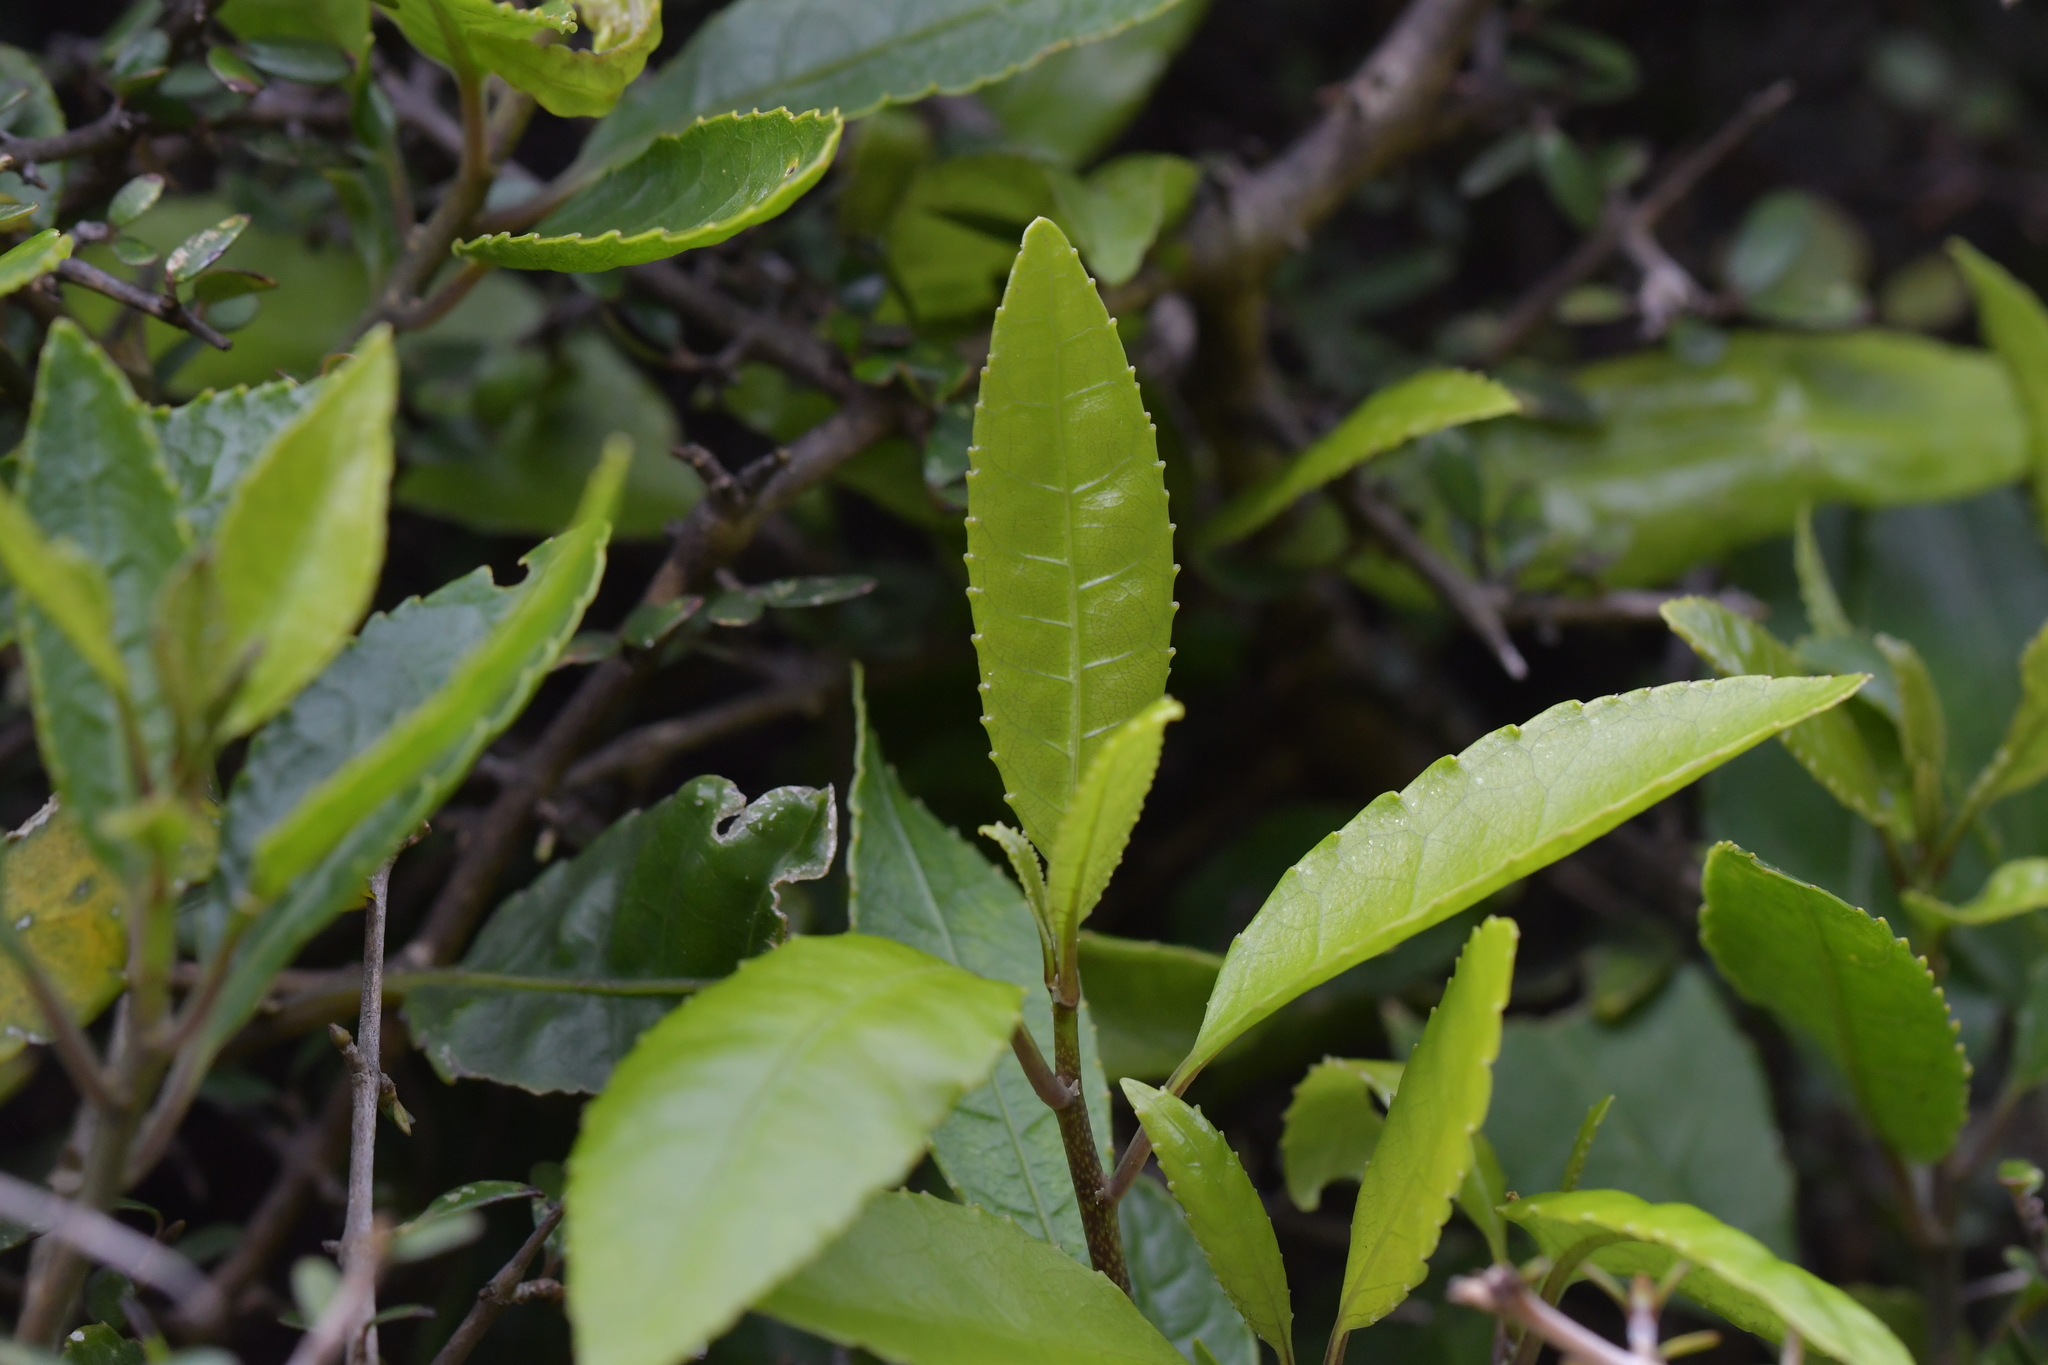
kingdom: Plantae
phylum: Tracheophyta
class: Magnoliopsida
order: Malpighiales
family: Violaceae
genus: Melicytus
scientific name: Melicytus ramiflorus
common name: Mahoe
